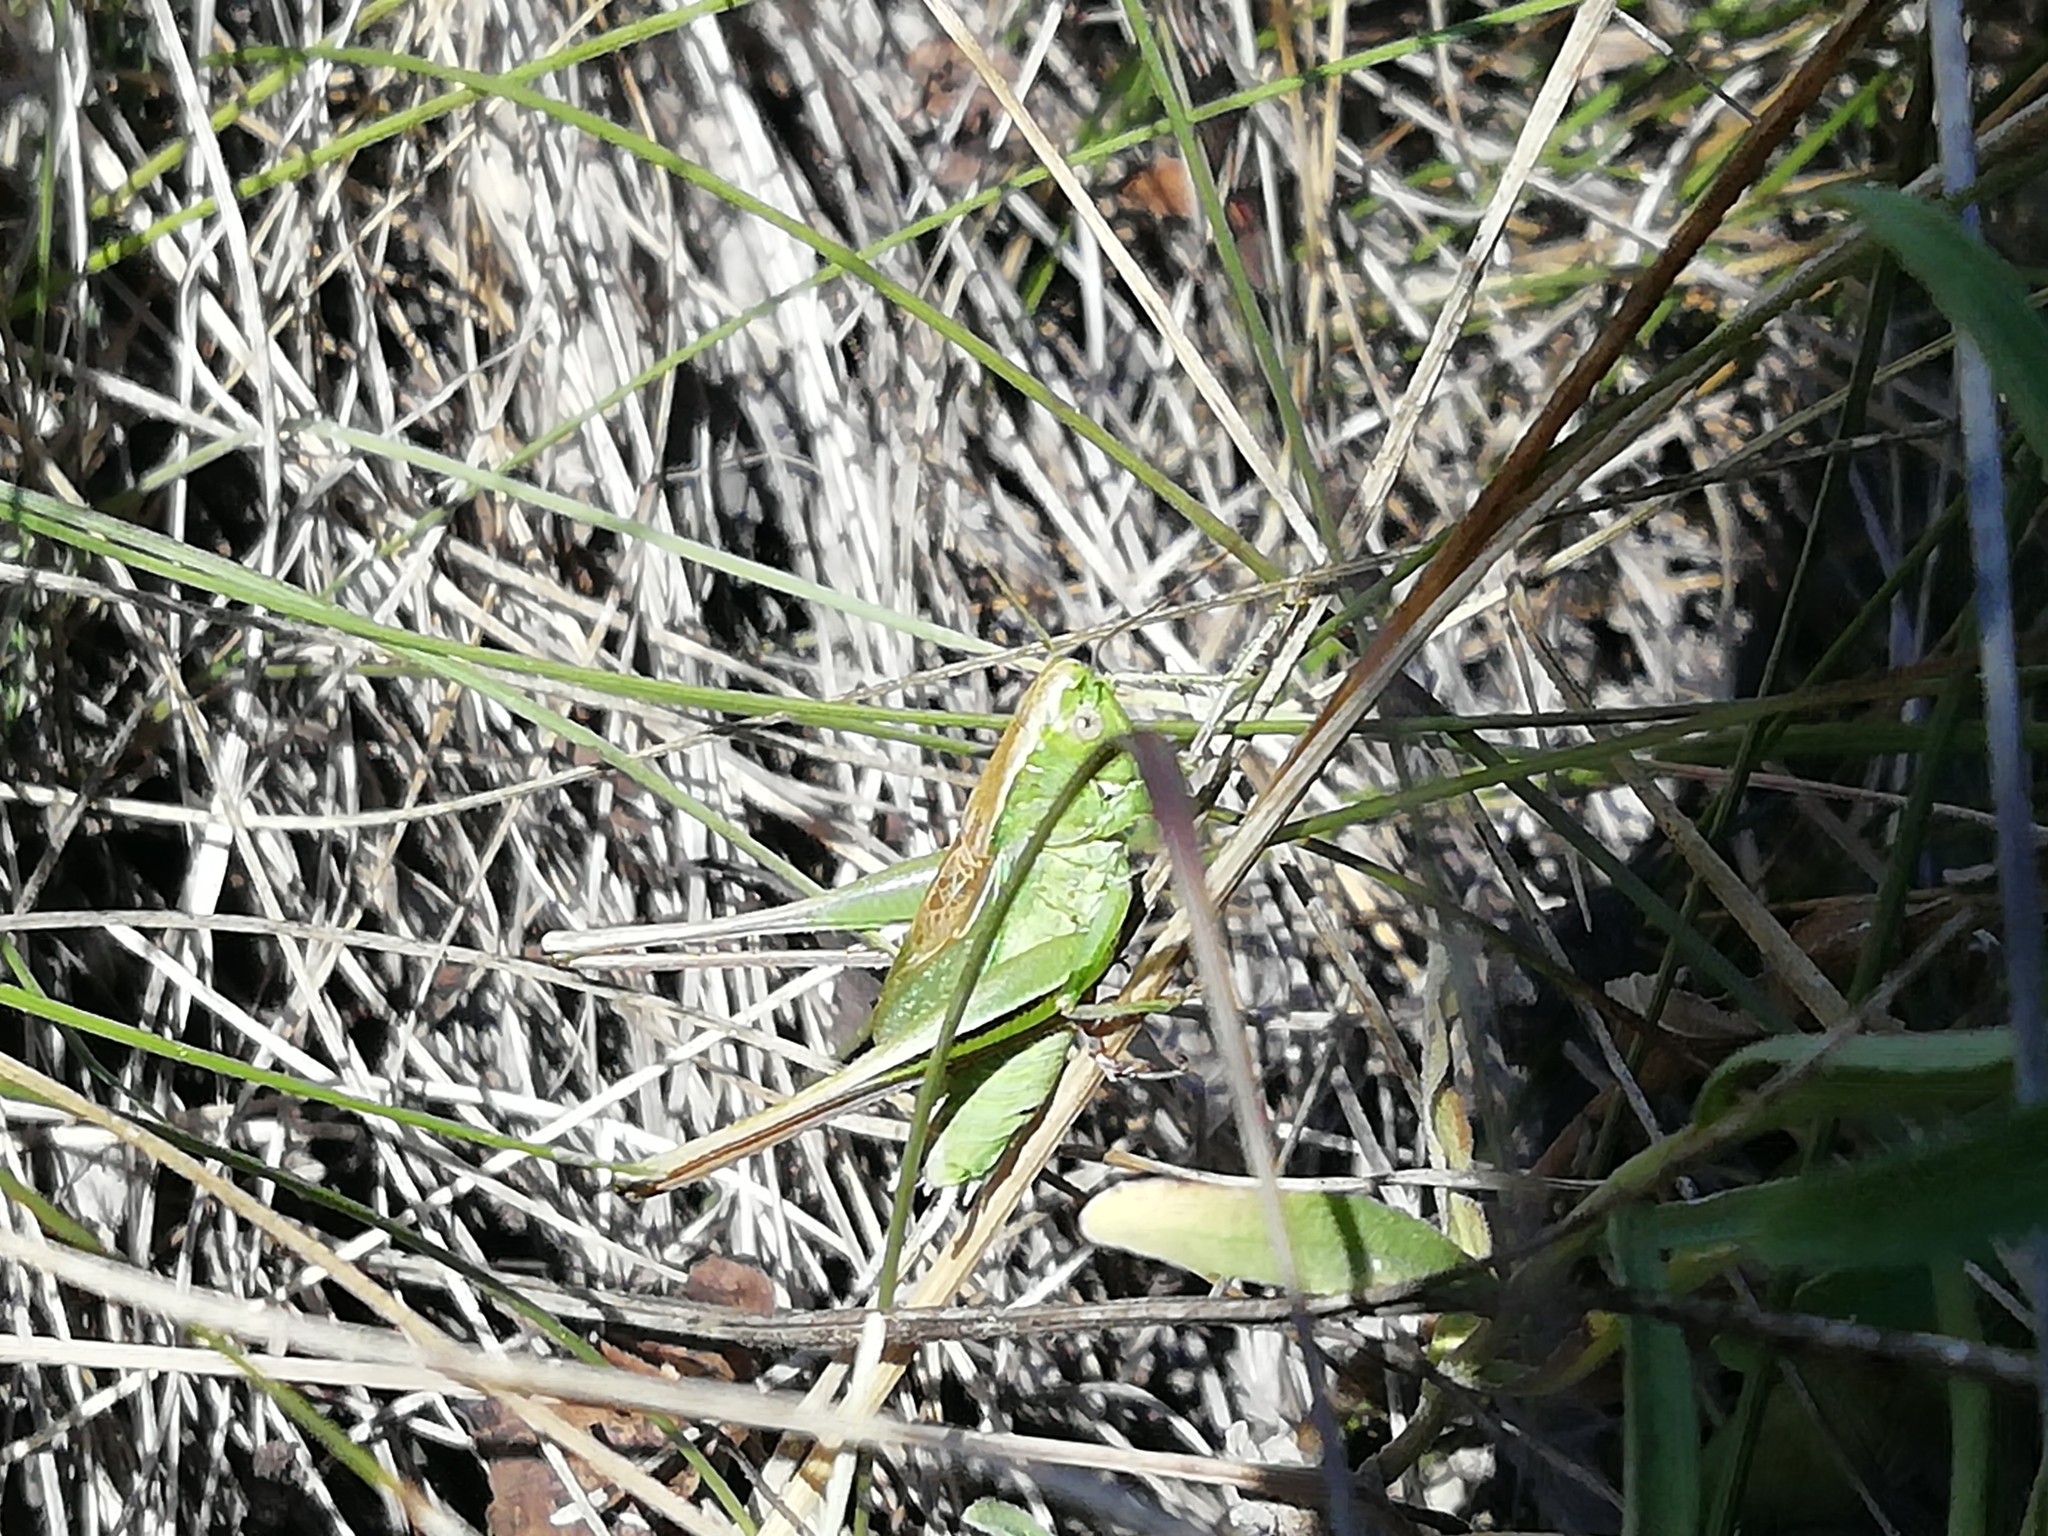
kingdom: Animalia
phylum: Arthropoda
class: Insecta
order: Orthoptera
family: Tettigoniidae
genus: Bicolorana
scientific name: Bicolorana bicolor
